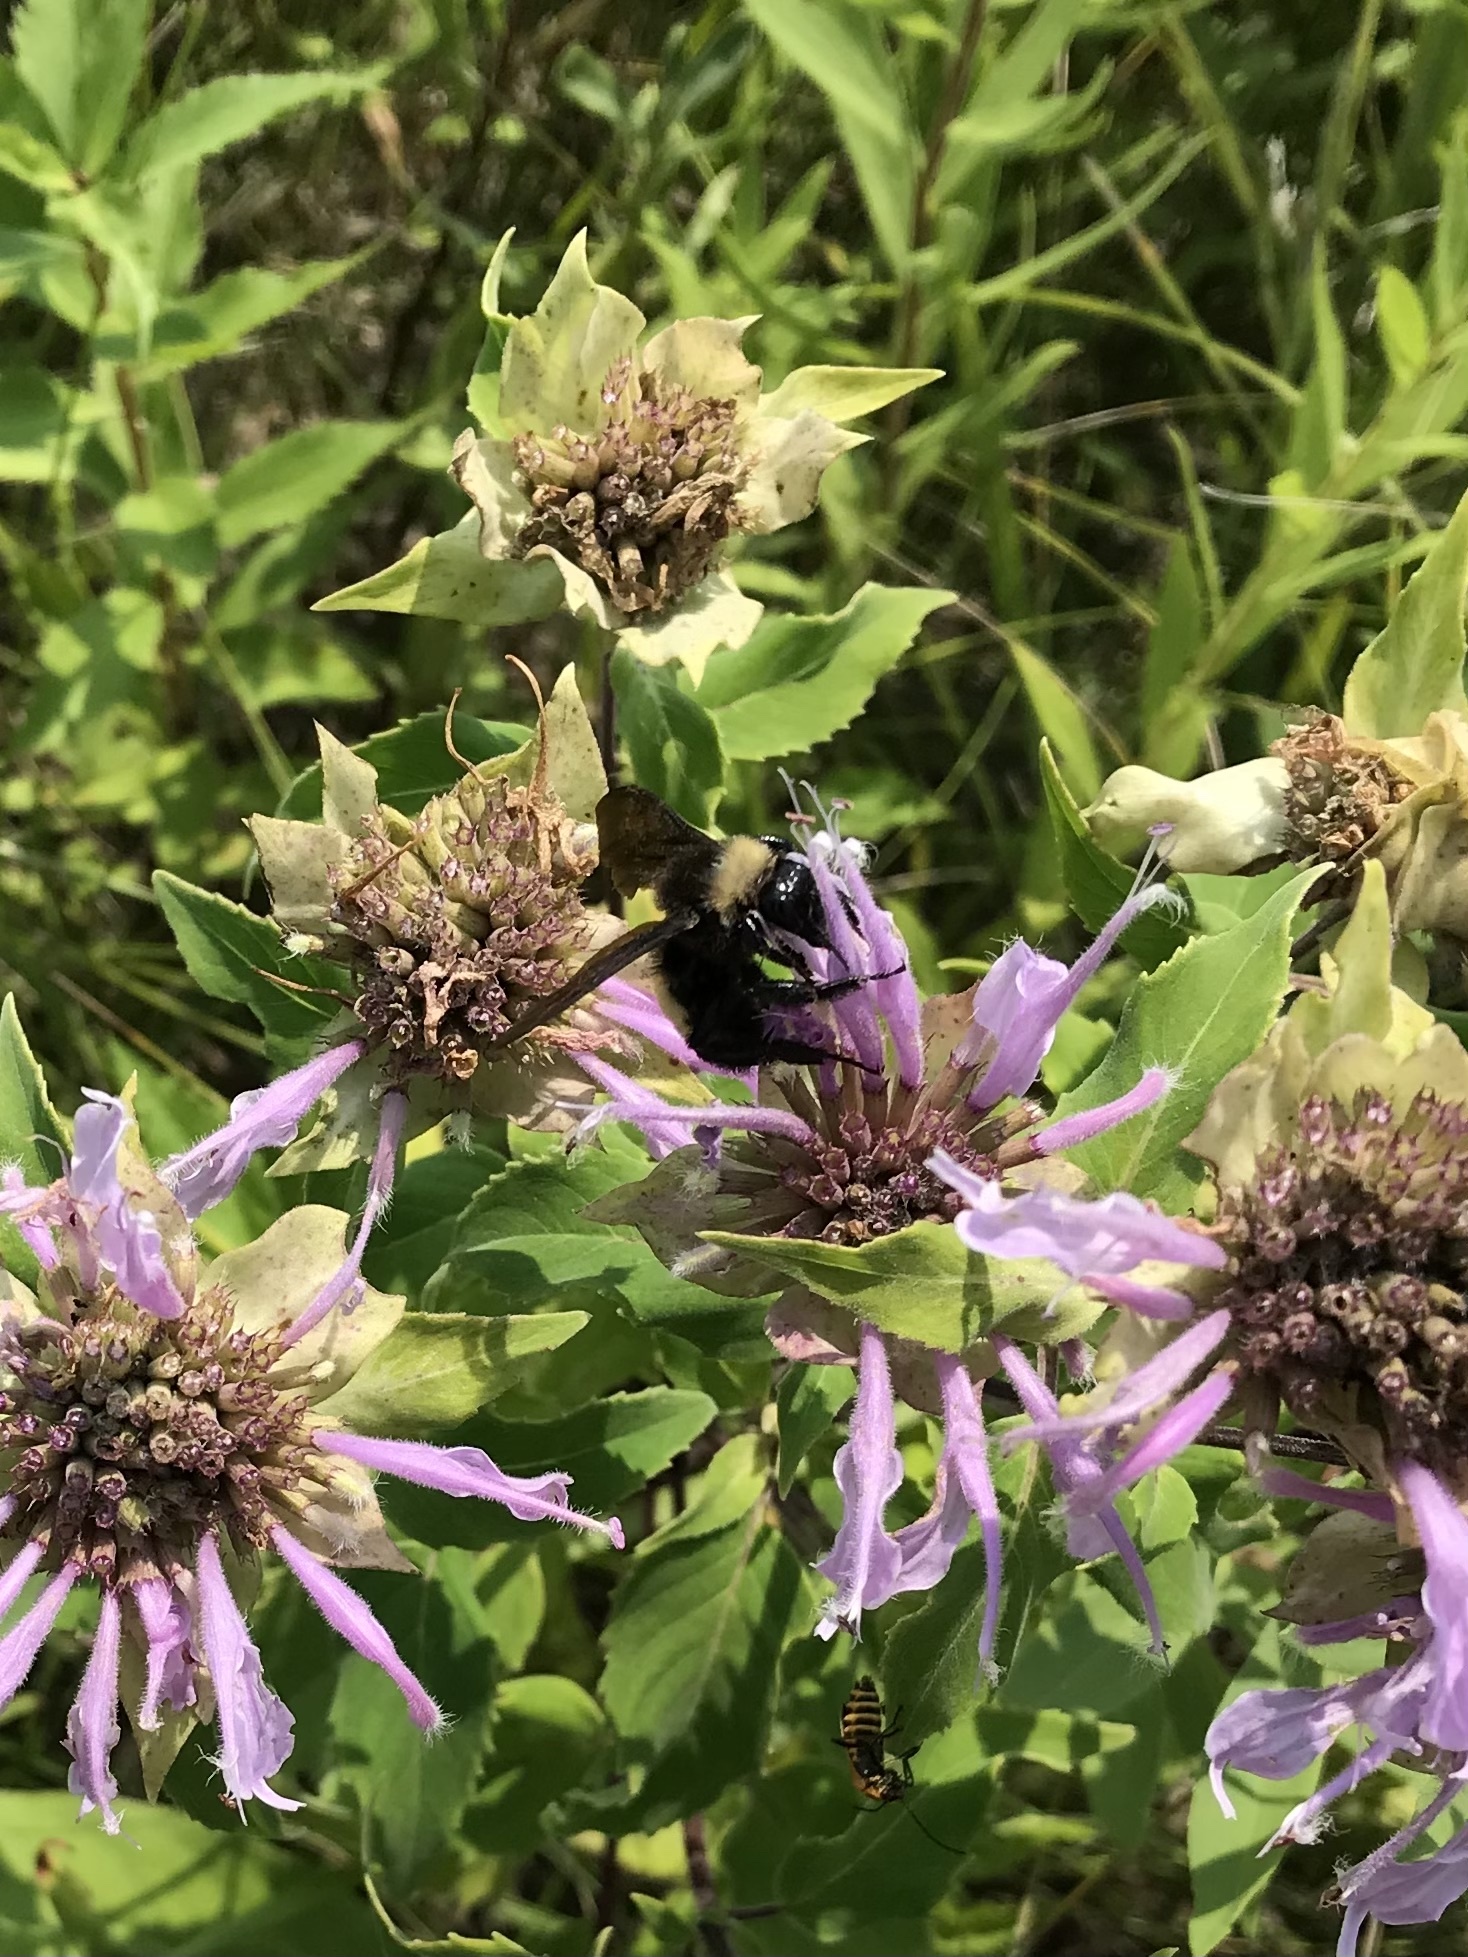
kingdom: Animalia
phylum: Arthropoda
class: Insecta
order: Hymenoptera
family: Apidae
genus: Bombus
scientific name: Bombus pensylvanicus
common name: Bumble bee
